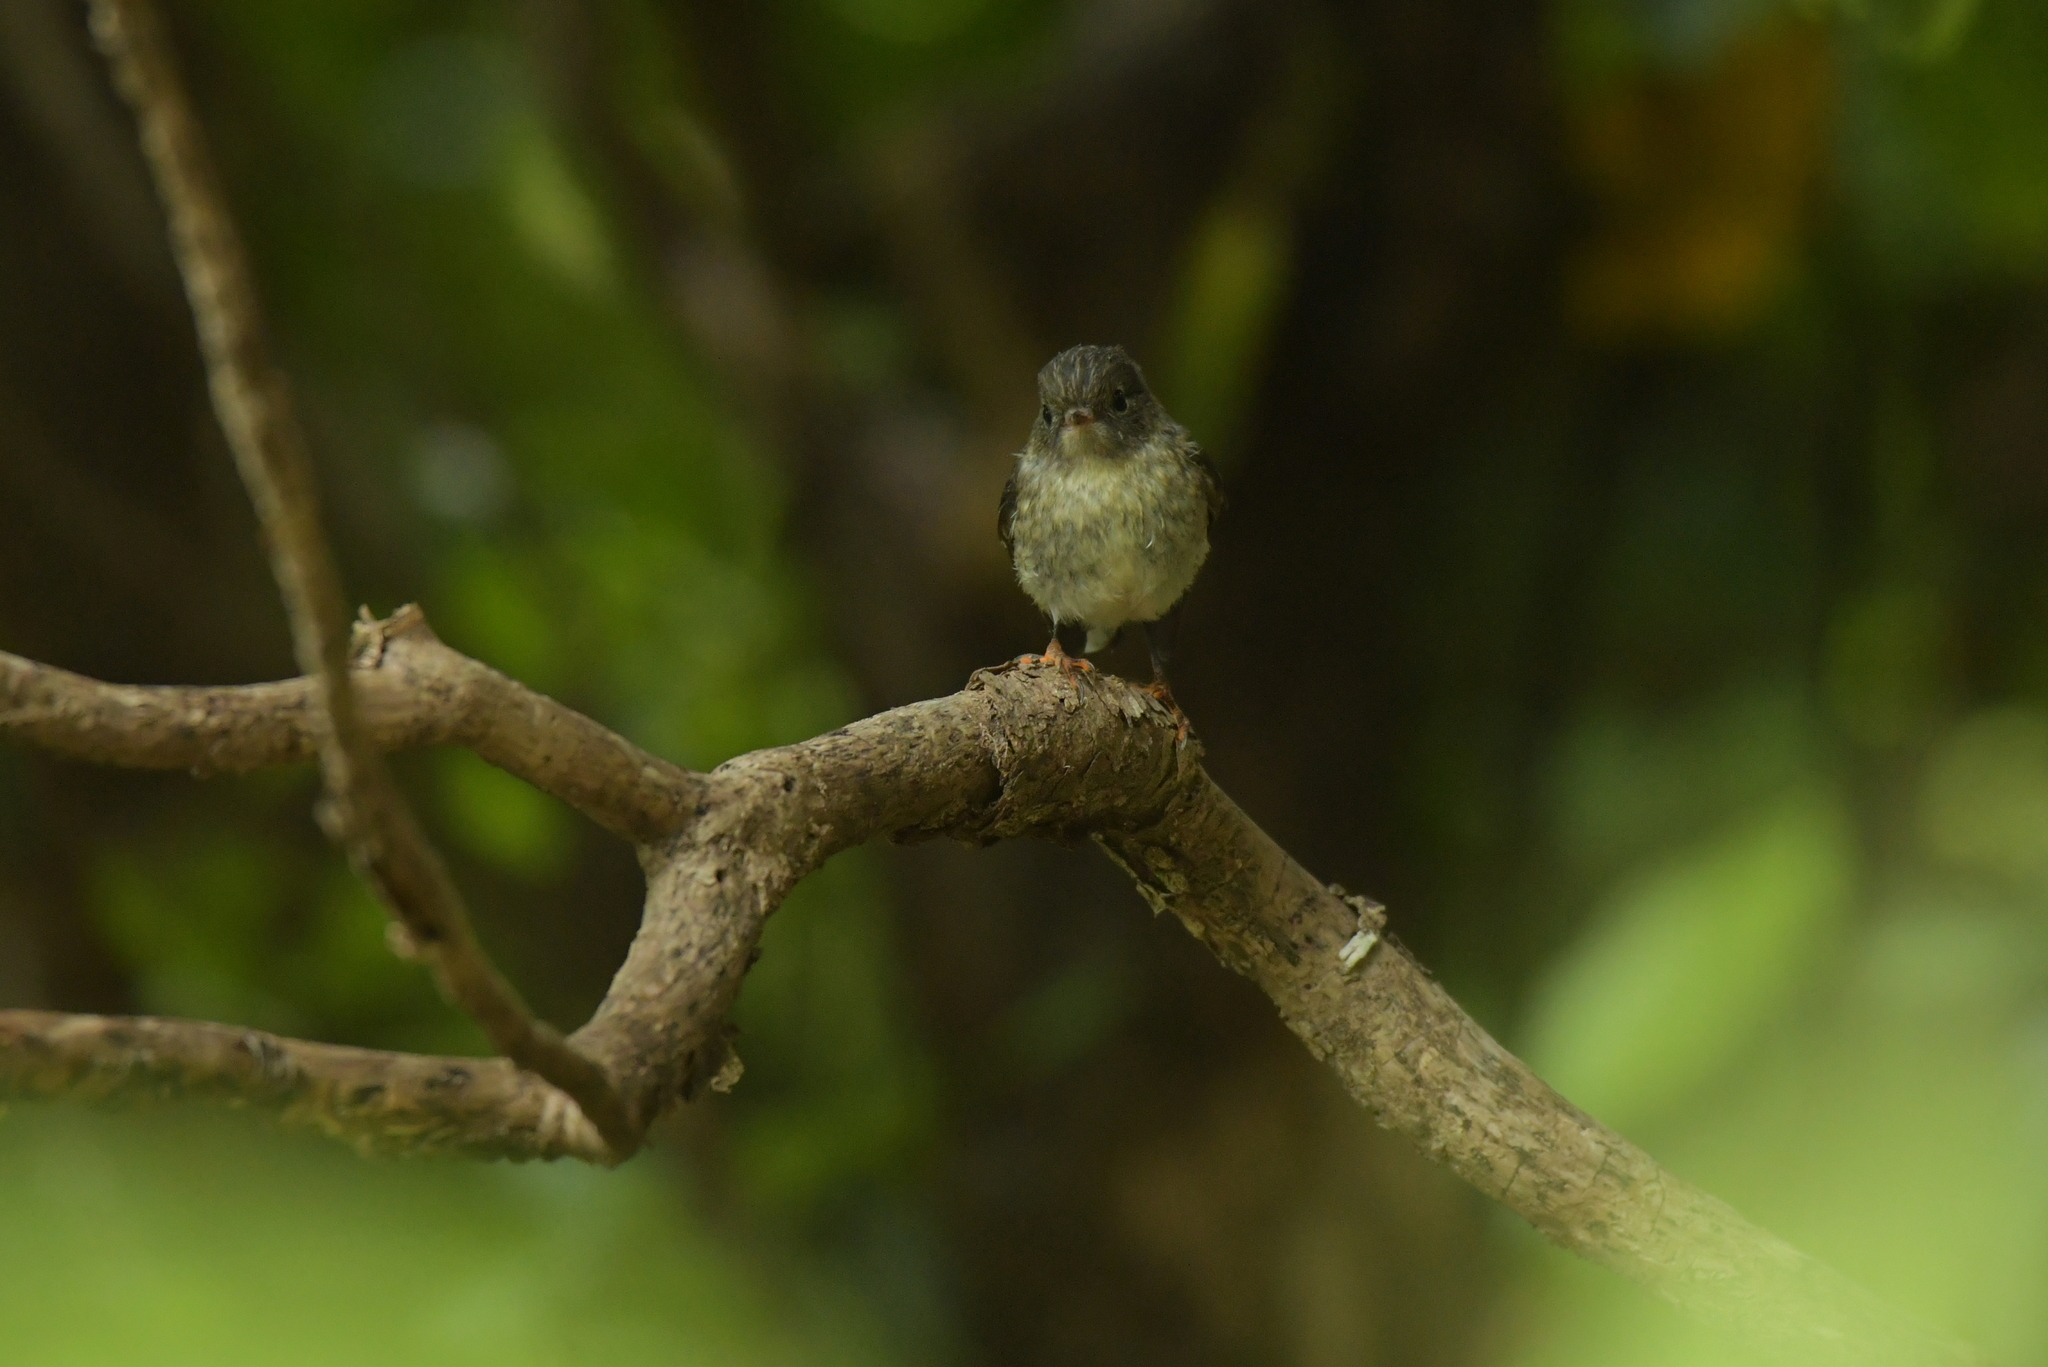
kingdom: Animalia
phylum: Chordata
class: Aves
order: Passeriformes
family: Petroicidae
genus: Petroica
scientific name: Petroica macrocephala
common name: Tomtit
